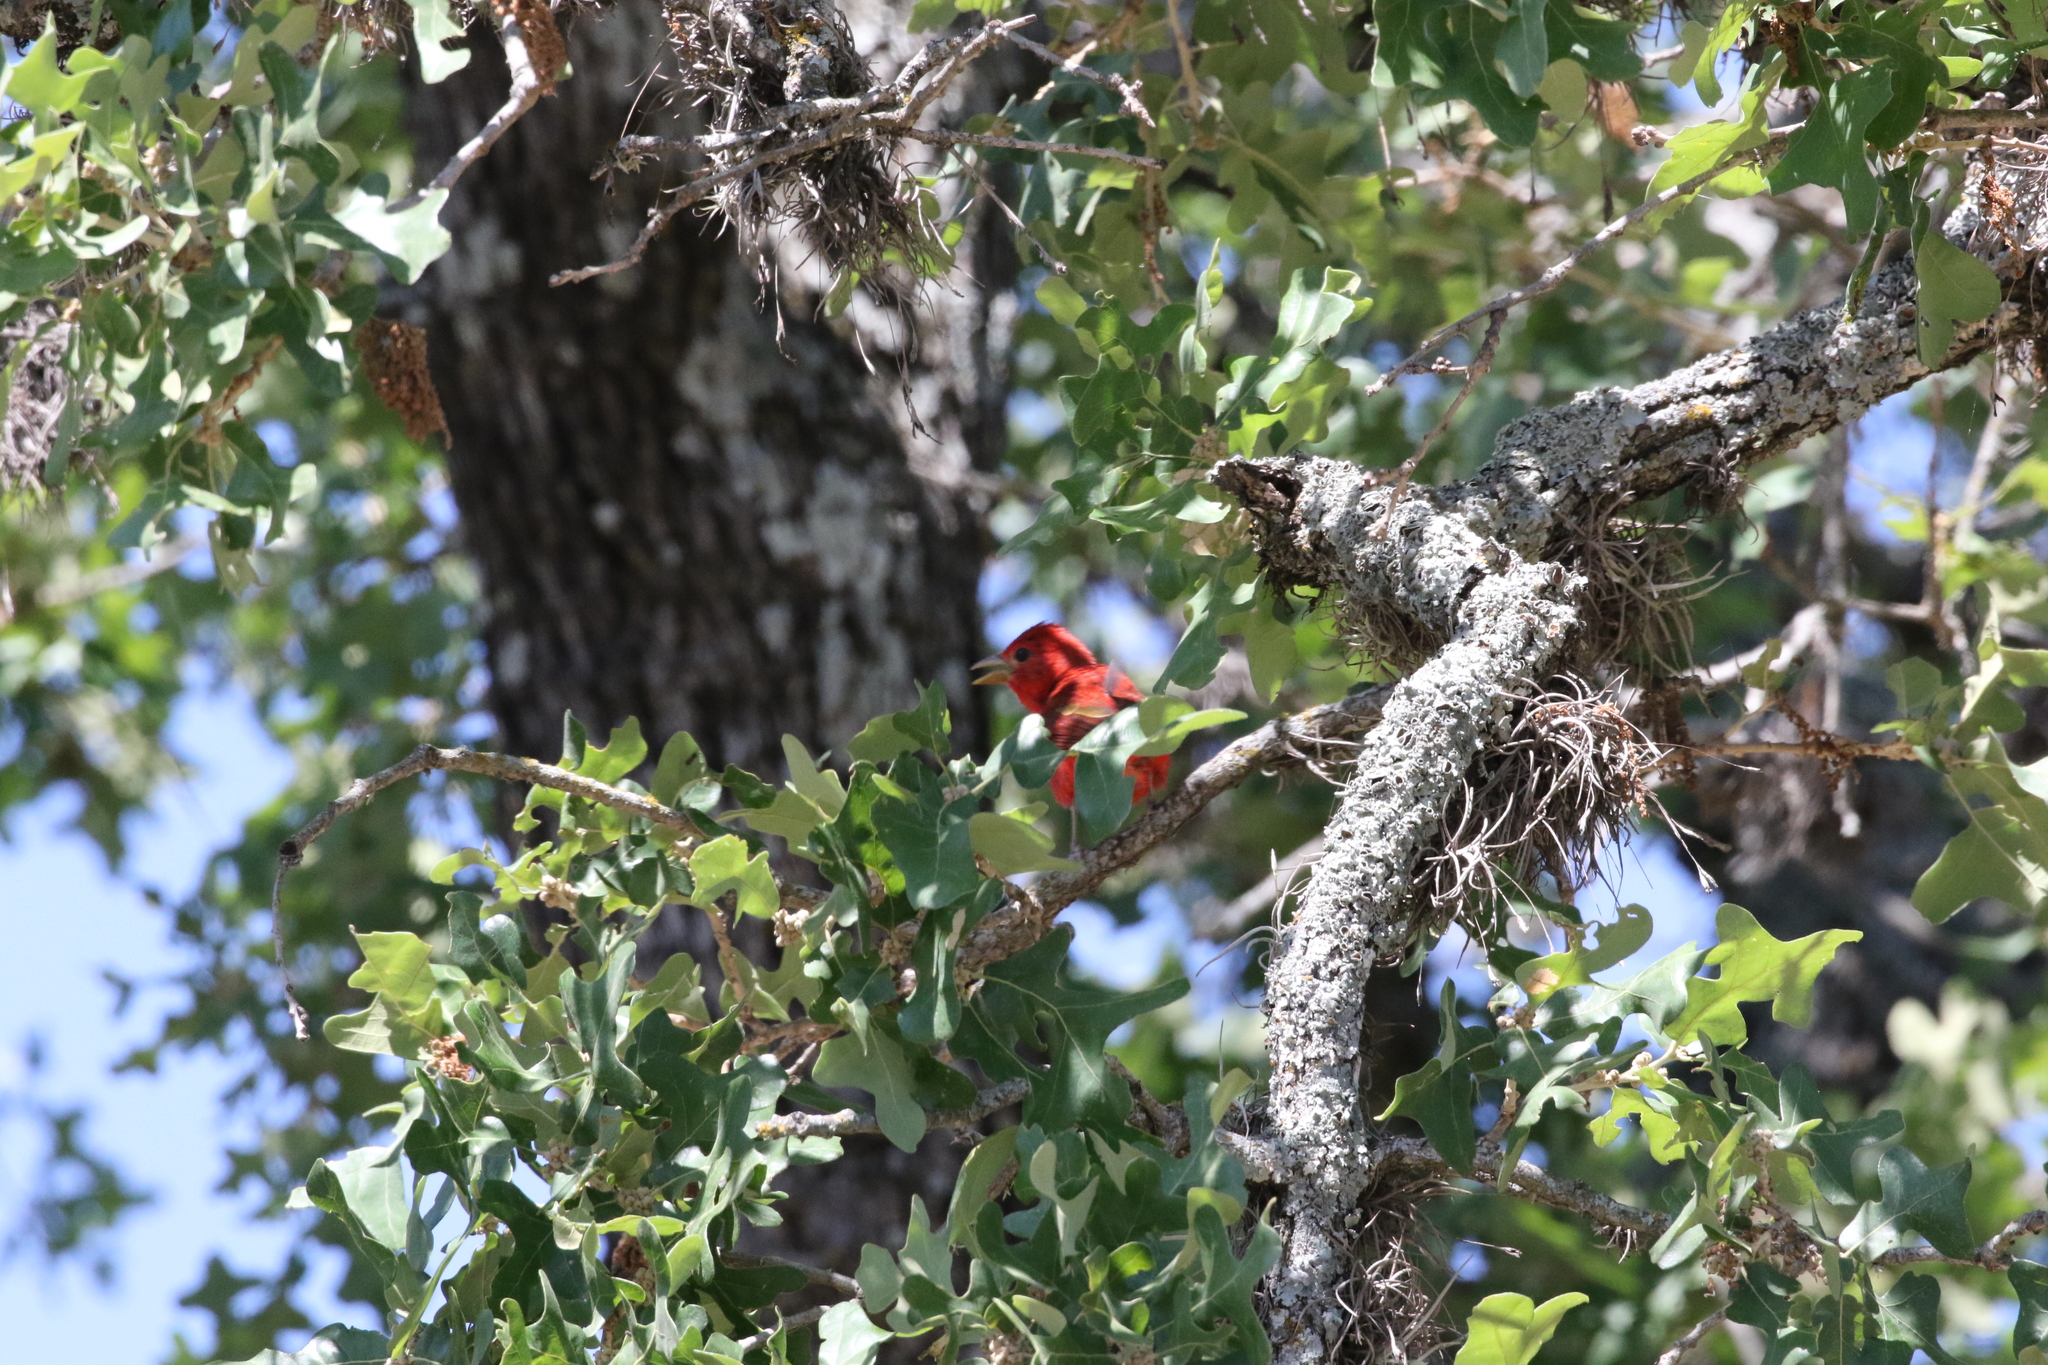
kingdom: Animalia
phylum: Chordata
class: Aves
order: Passeriformes
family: Cardinalidae
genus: Piranga
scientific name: Piranga rubra
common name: Summer tanager
